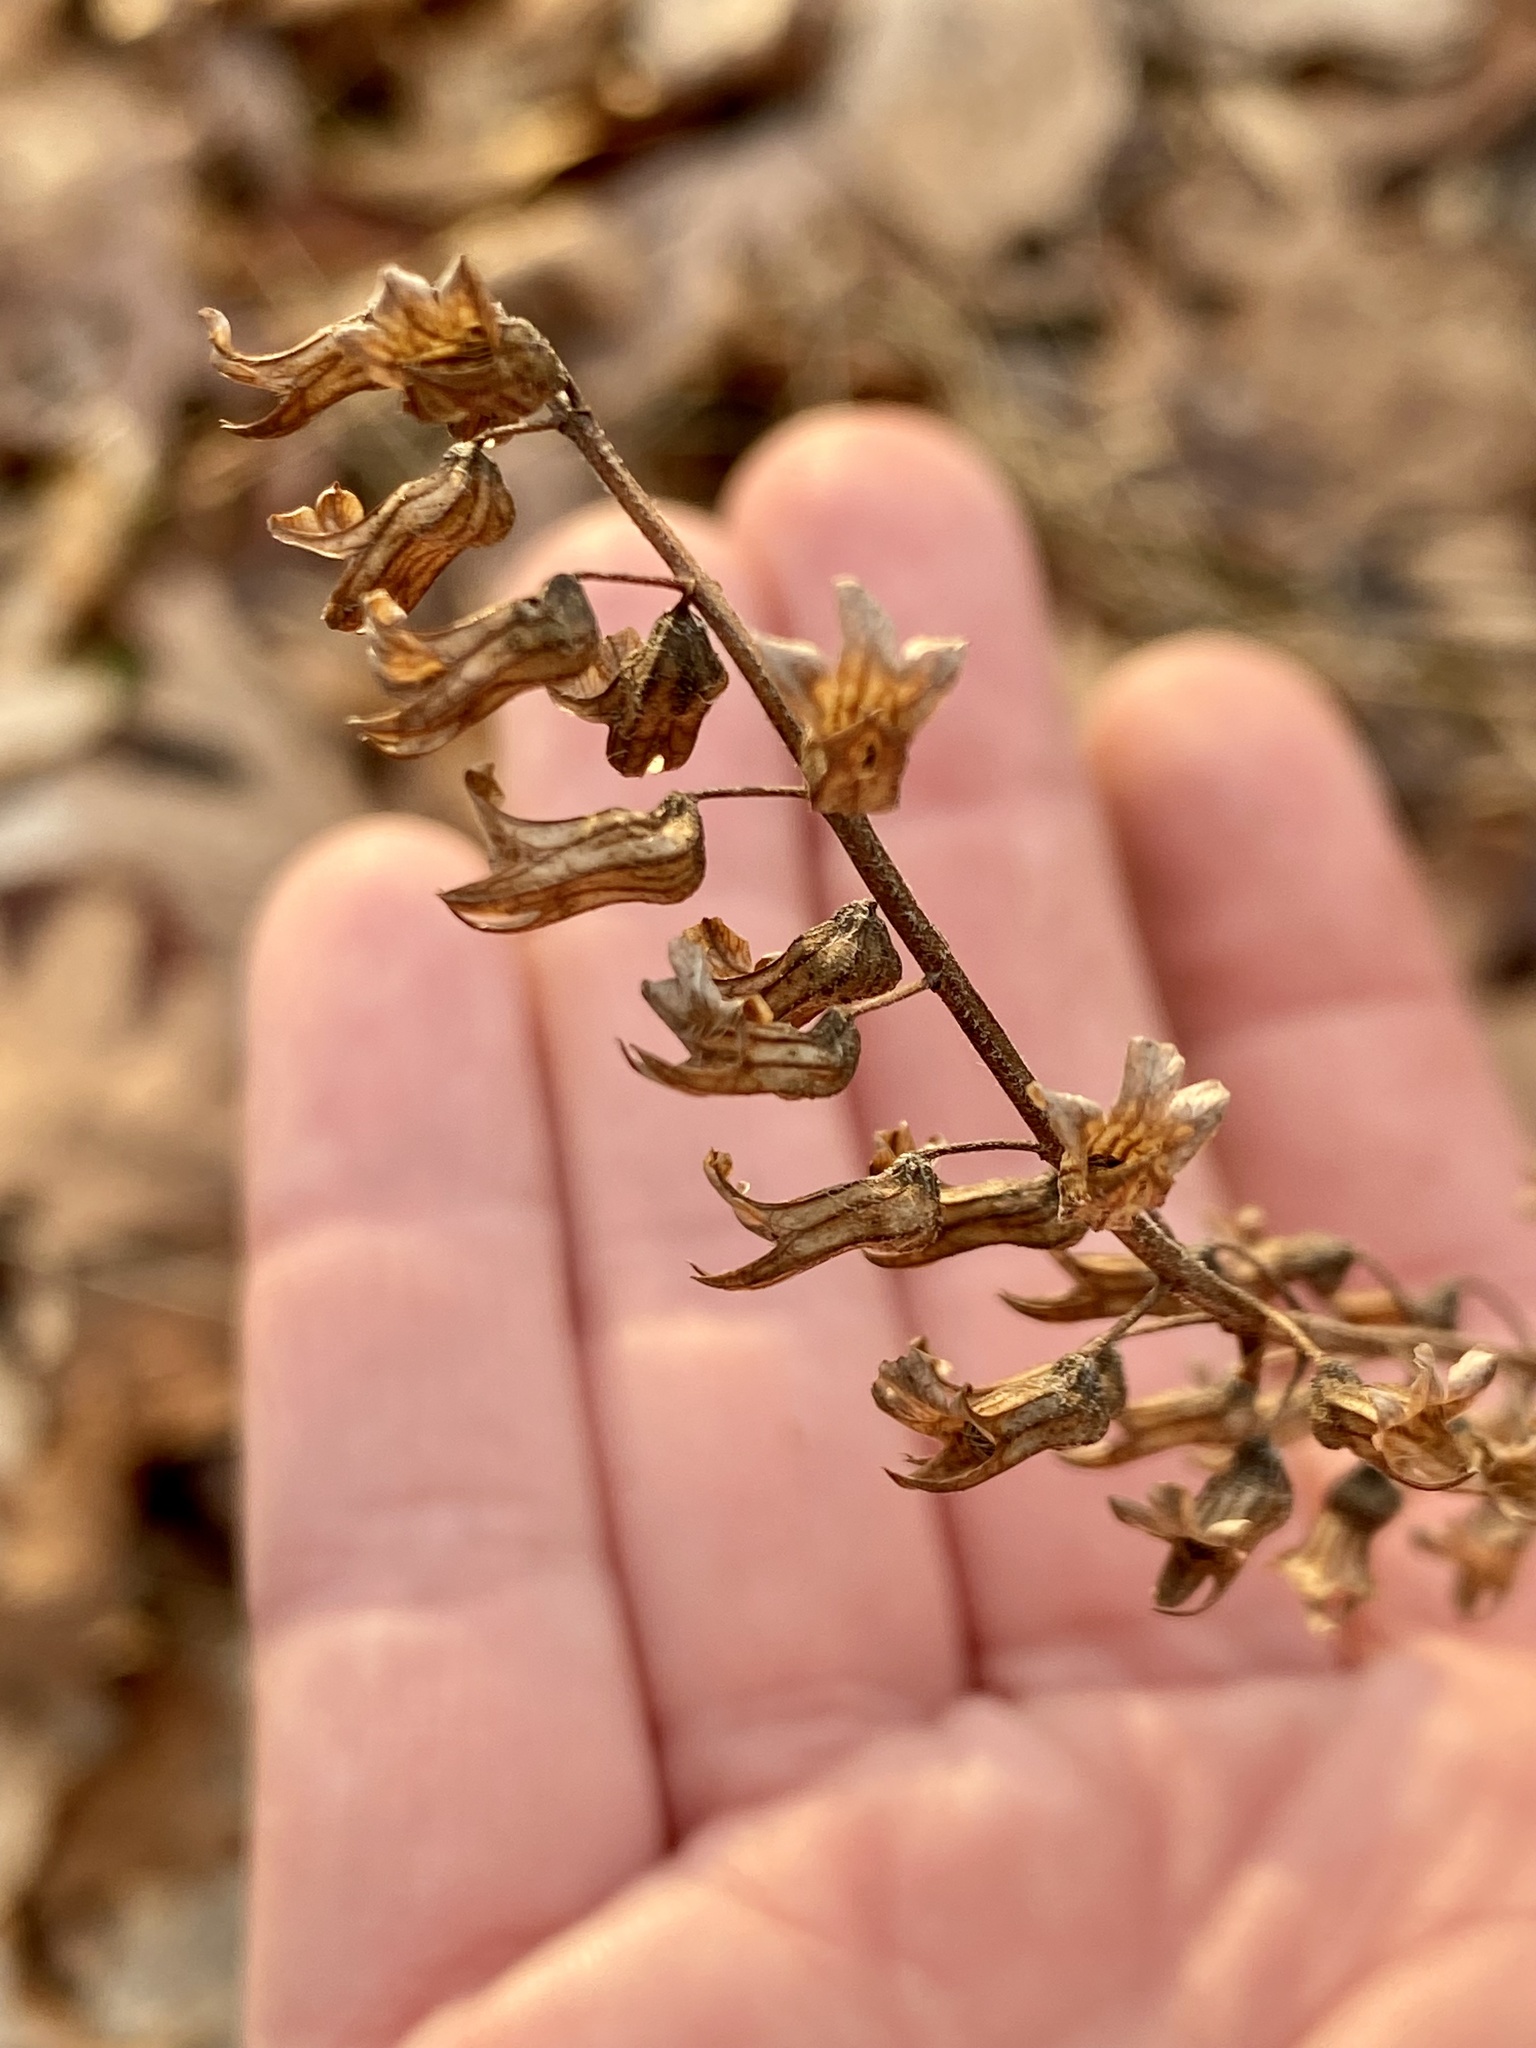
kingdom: Plantae
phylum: Tracheophyta
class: Magnoliopsida
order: Lamiales
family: Lamiaceae
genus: Perilla
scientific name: Perilla frutescens
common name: Perilla
